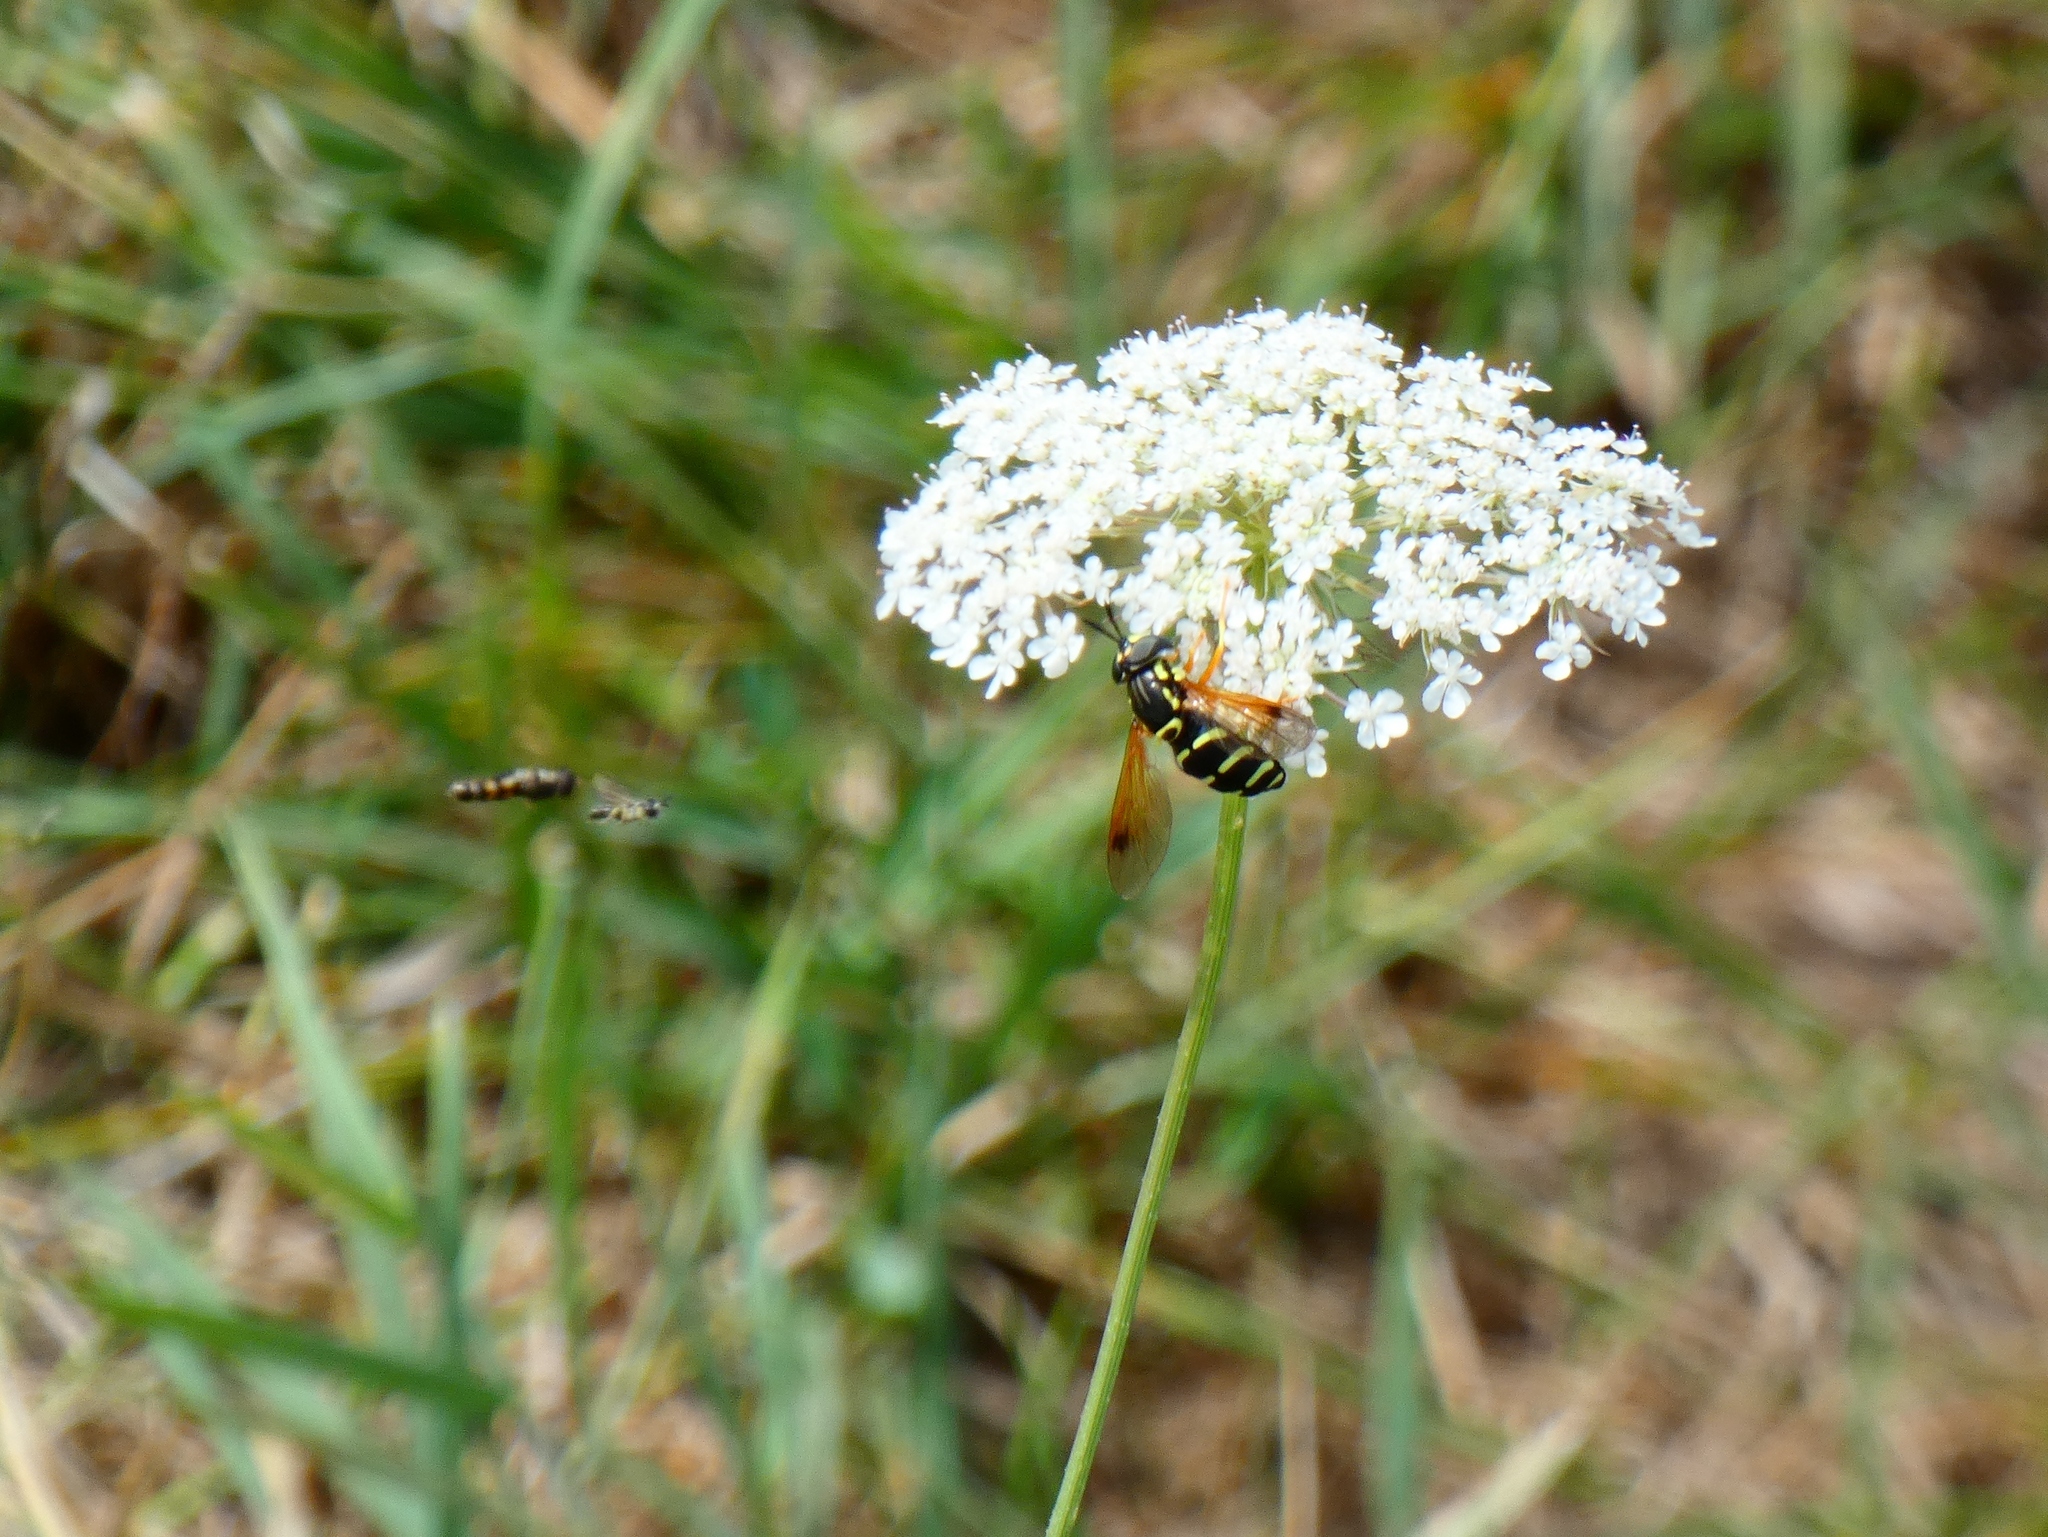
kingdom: Animalia
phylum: Arthropoda
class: Insecta
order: Diptera
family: Syrphidae
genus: Chrysotoxum
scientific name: Chrysotoxum festivum
